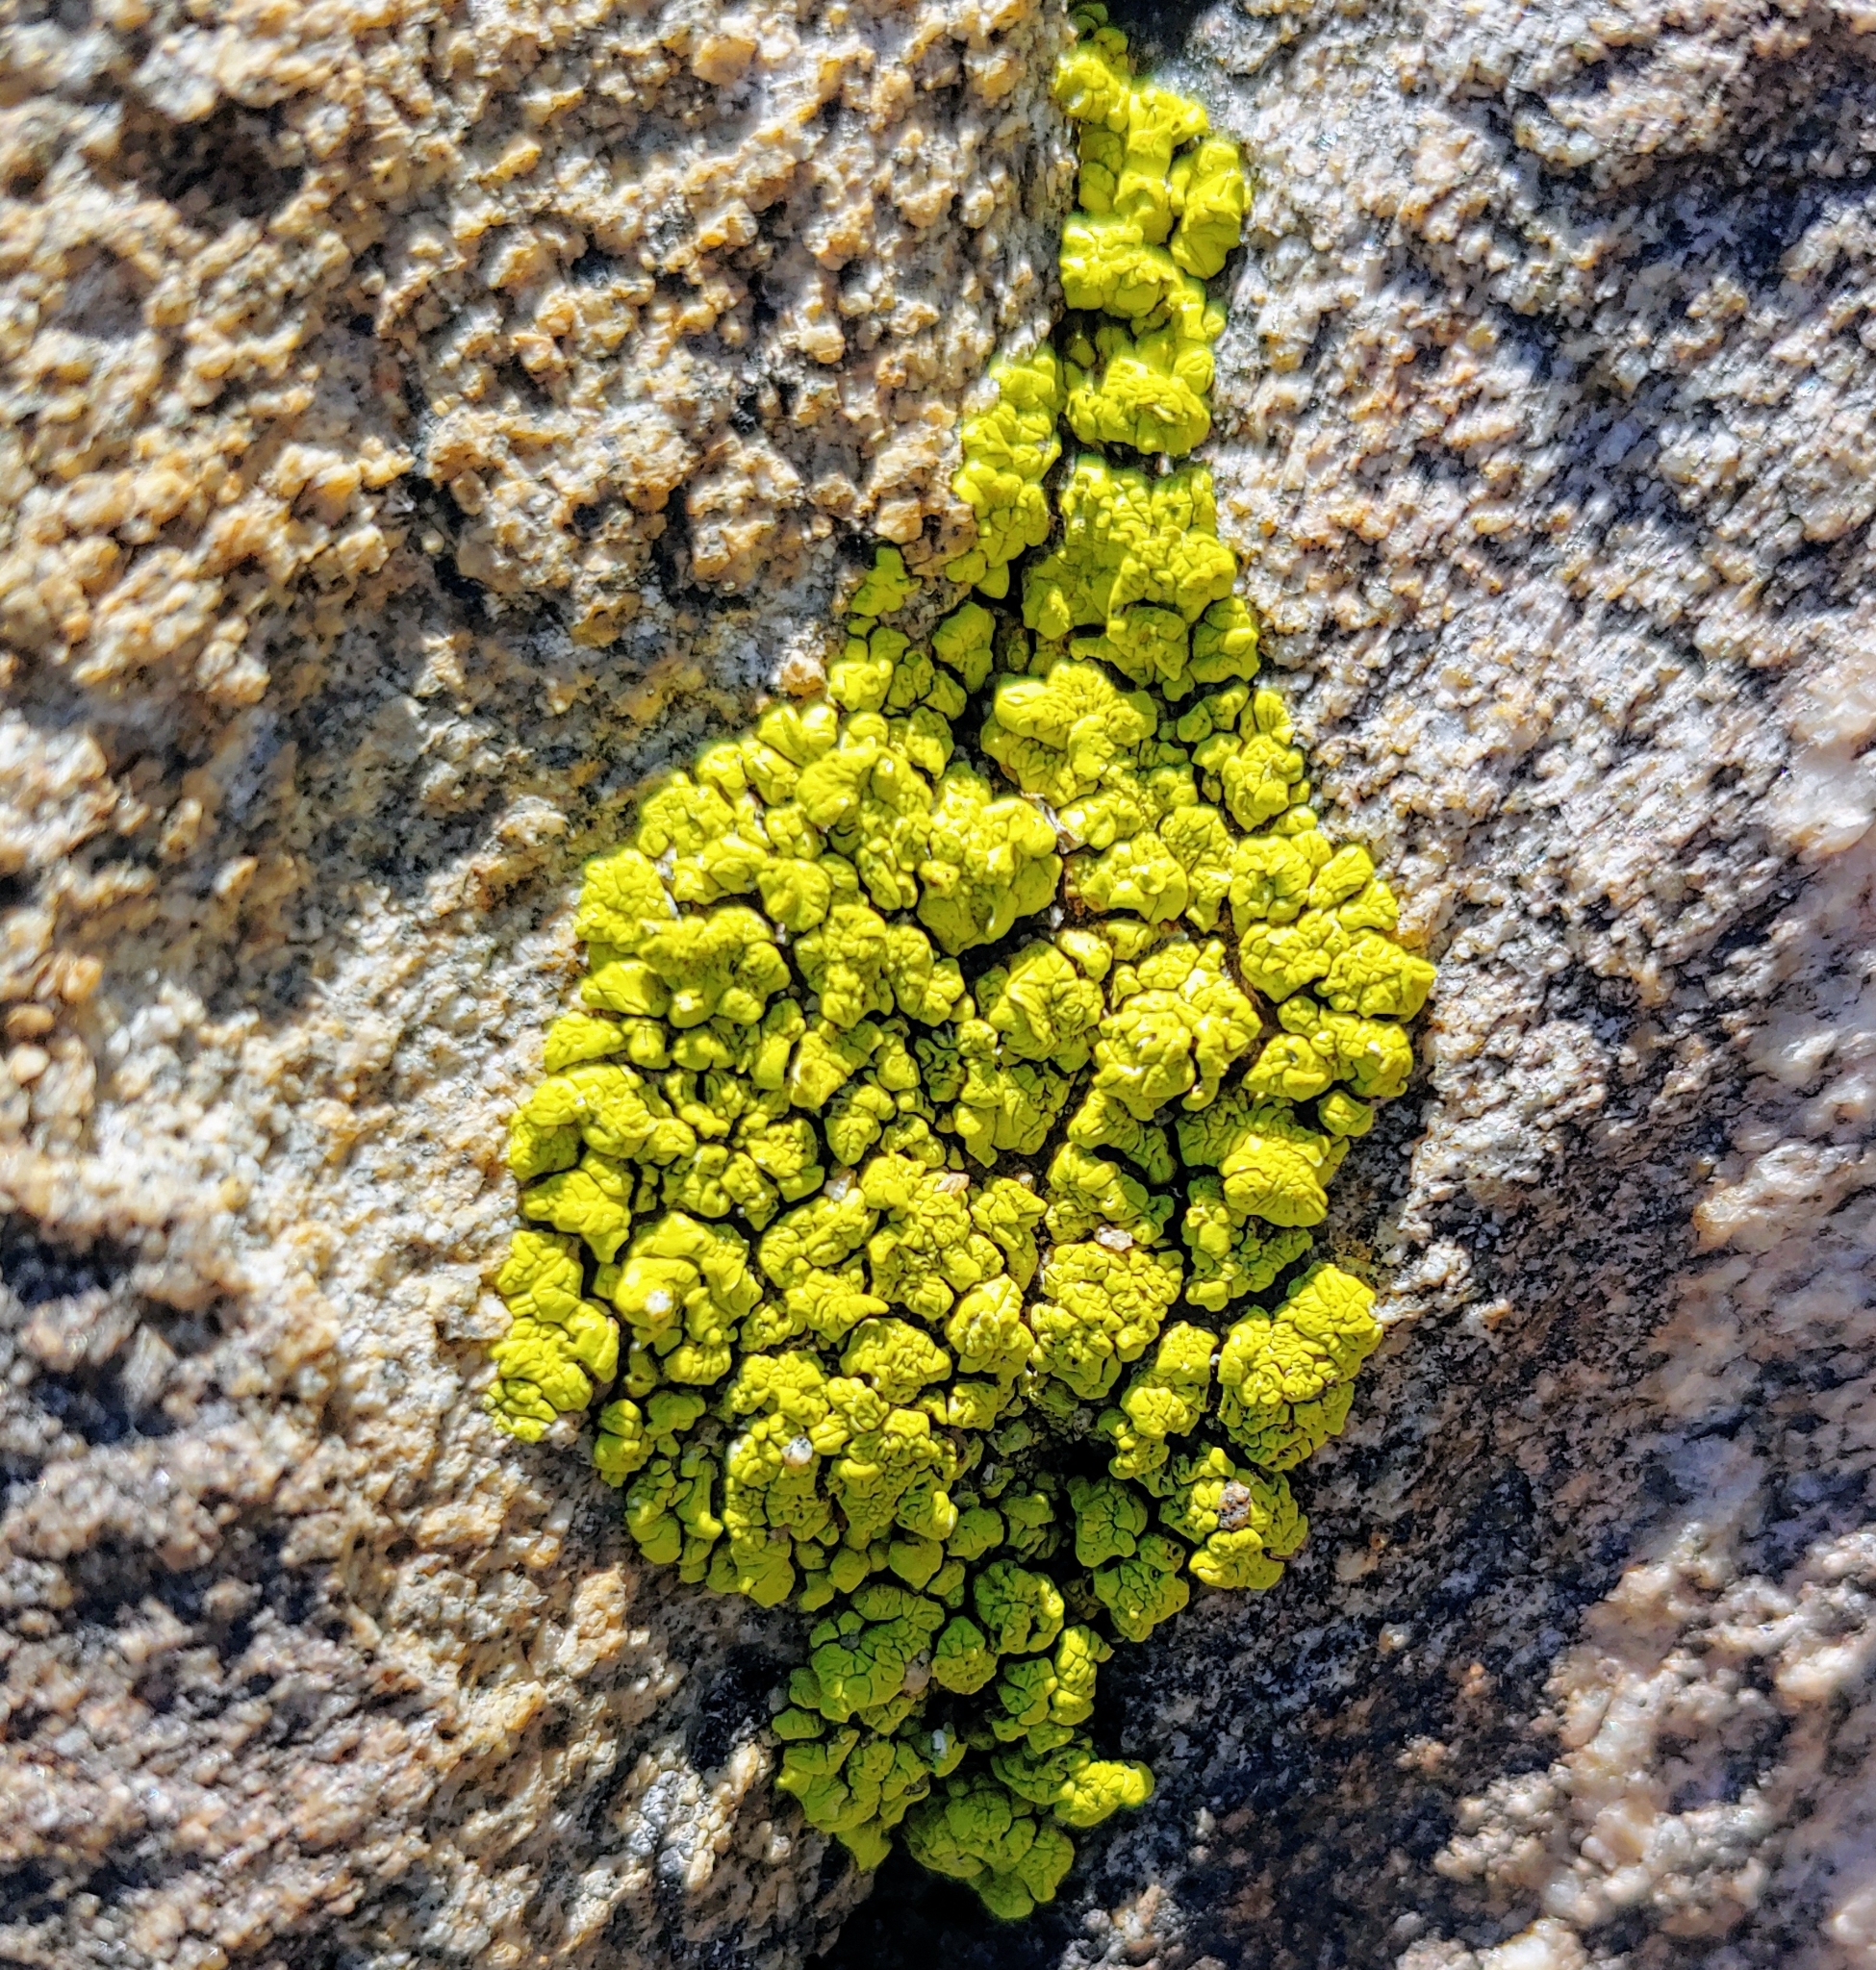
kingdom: Fungi
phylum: Ascomycota
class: Lecanoromycetes
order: Acarosporales
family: Acarosporaceae
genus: Acarospora
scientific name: Acarospora socialis
